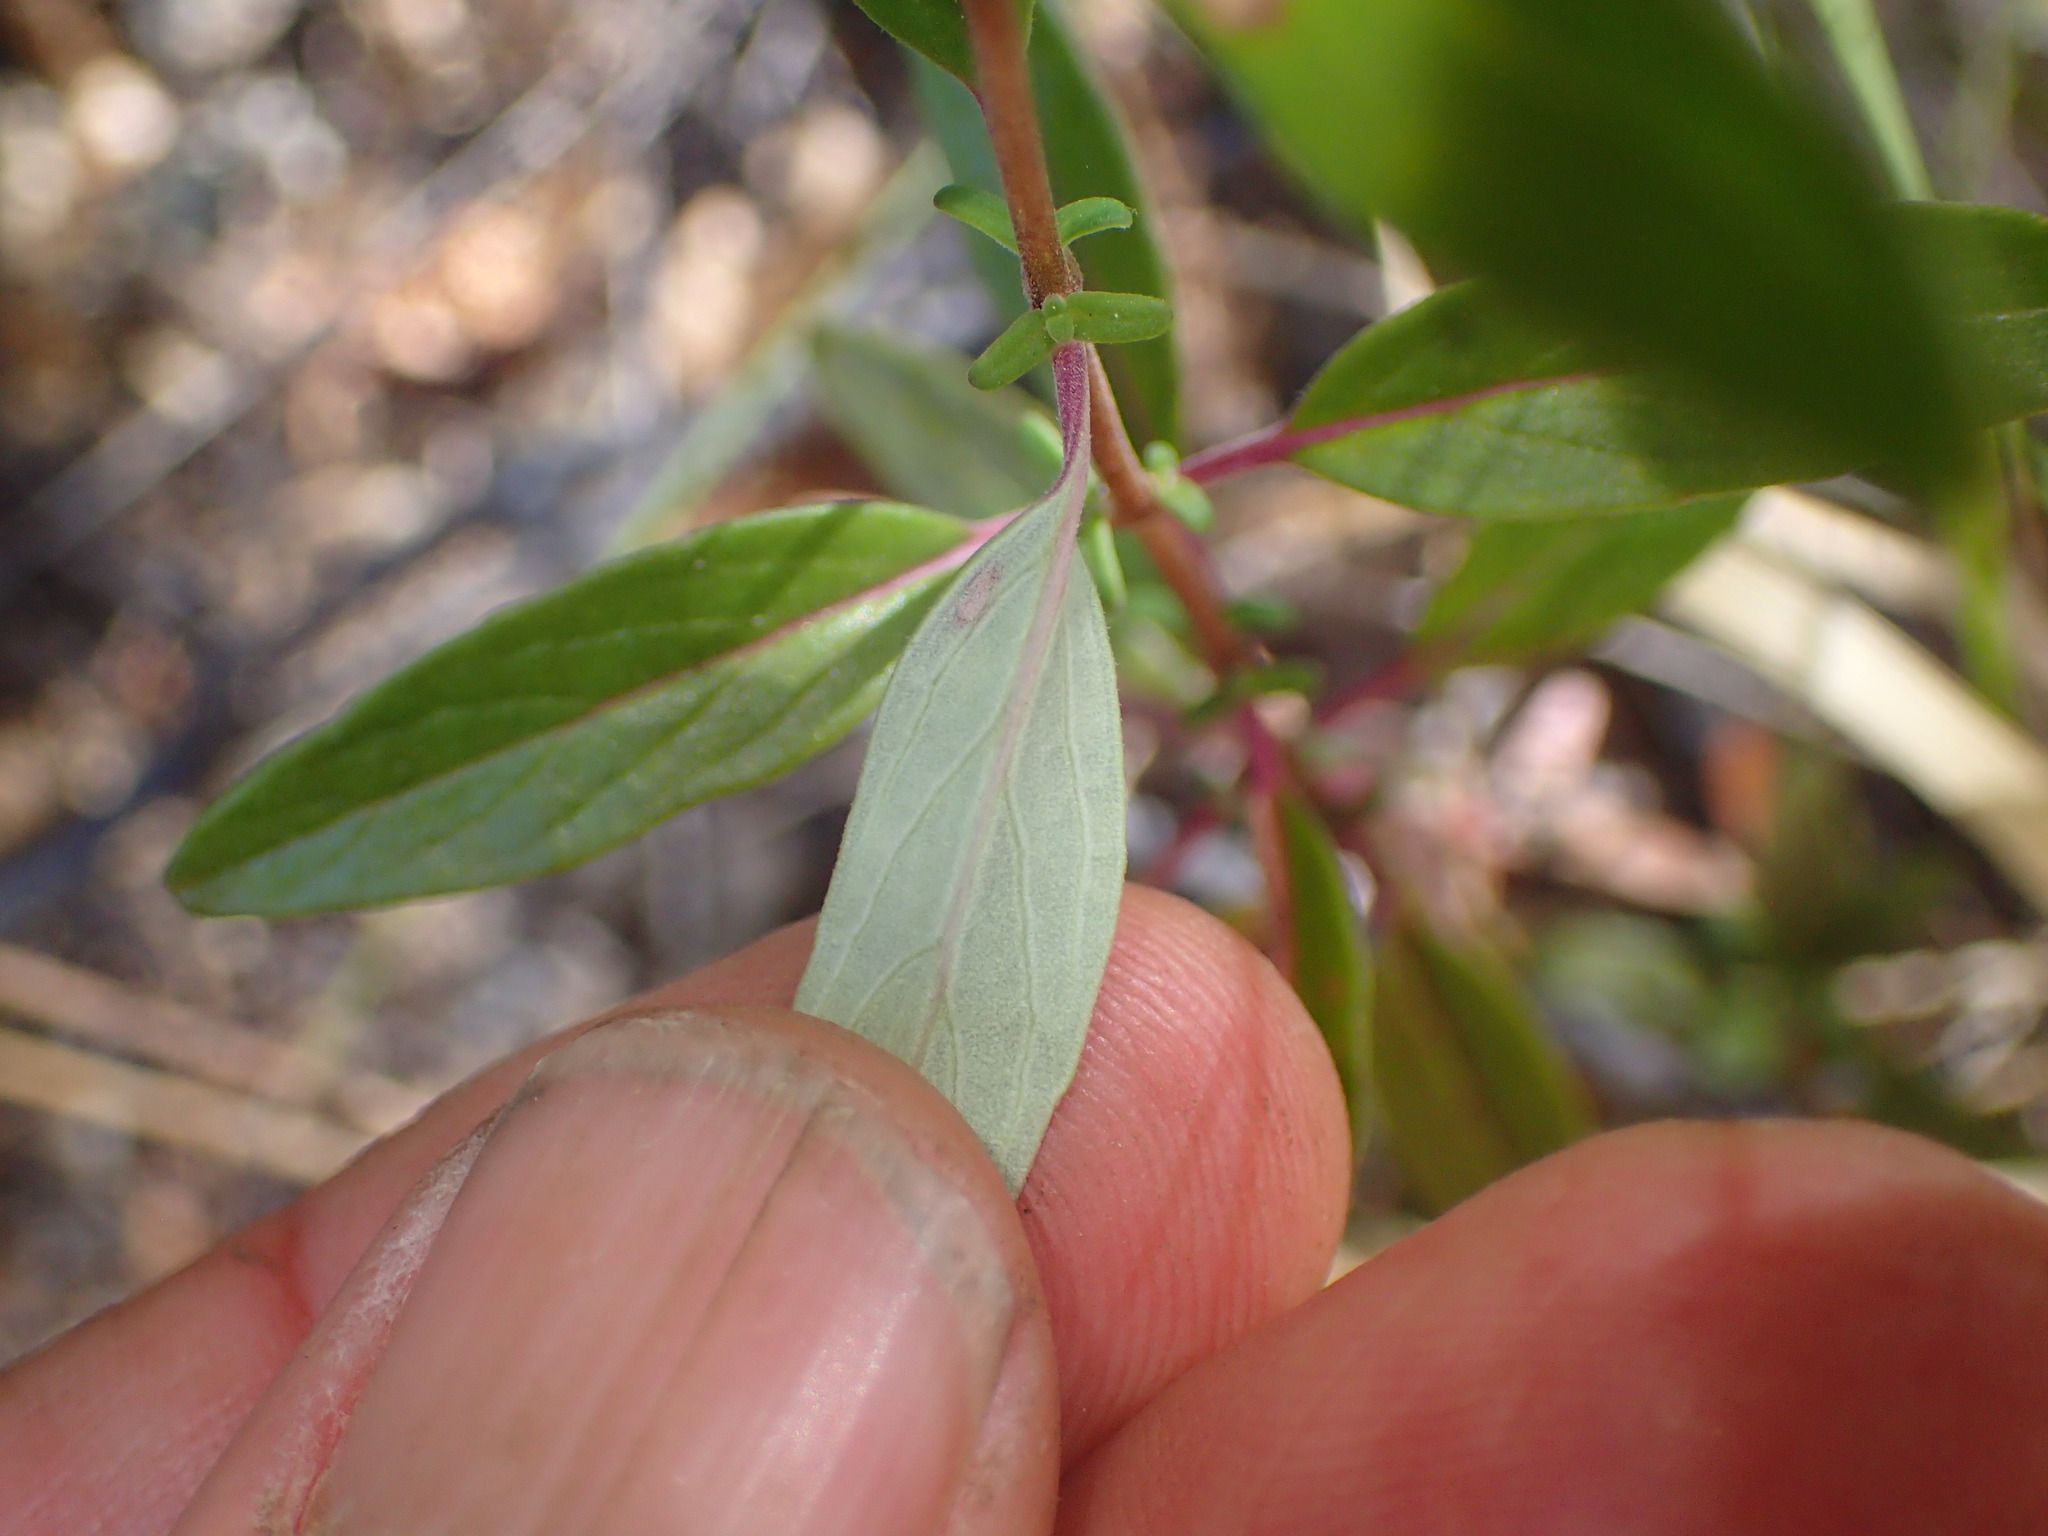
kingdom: Plantae
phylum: Tracheophyta
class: Magnoliopsida
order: Lamiales
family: Lamiaceae
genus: Monardella
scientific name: Monardella hypoleuca
